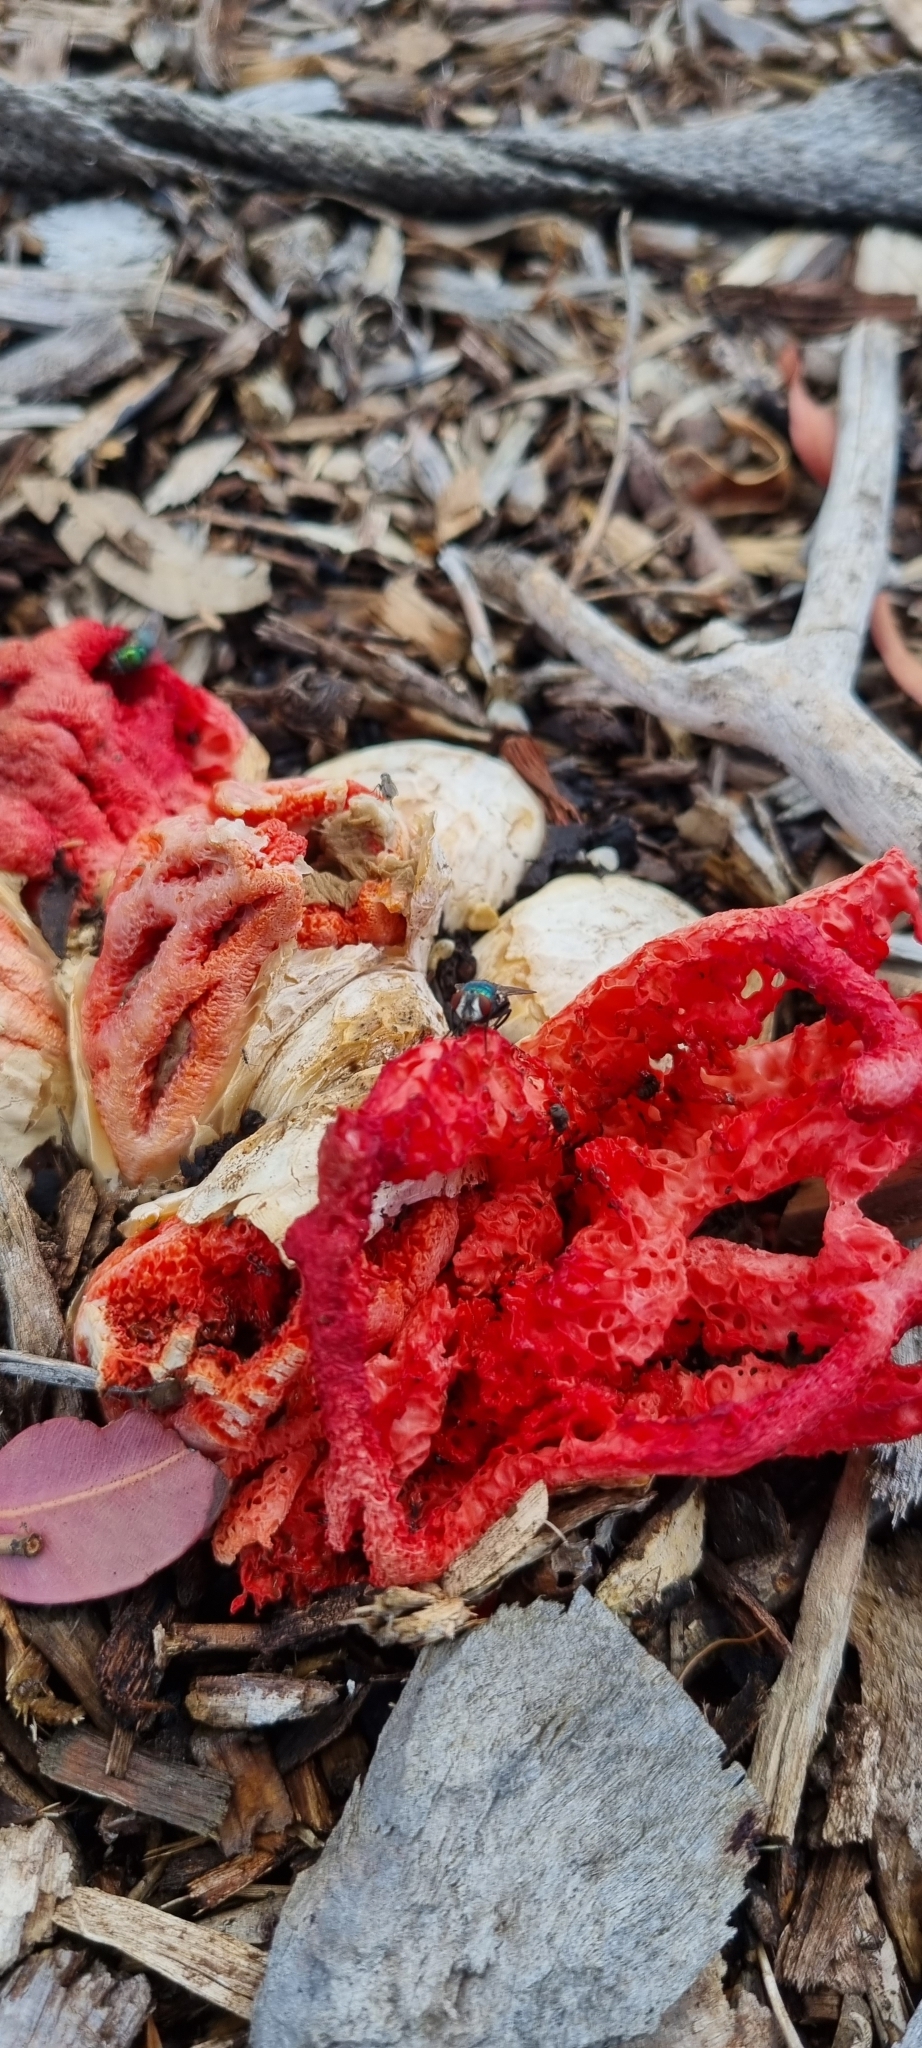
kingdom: Fungi
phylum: Basidiomycota
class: Agaricomycetes
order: Phallales
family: Phallaceae
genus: Clathrus
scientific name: Clathrus ruber
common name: Red cage
